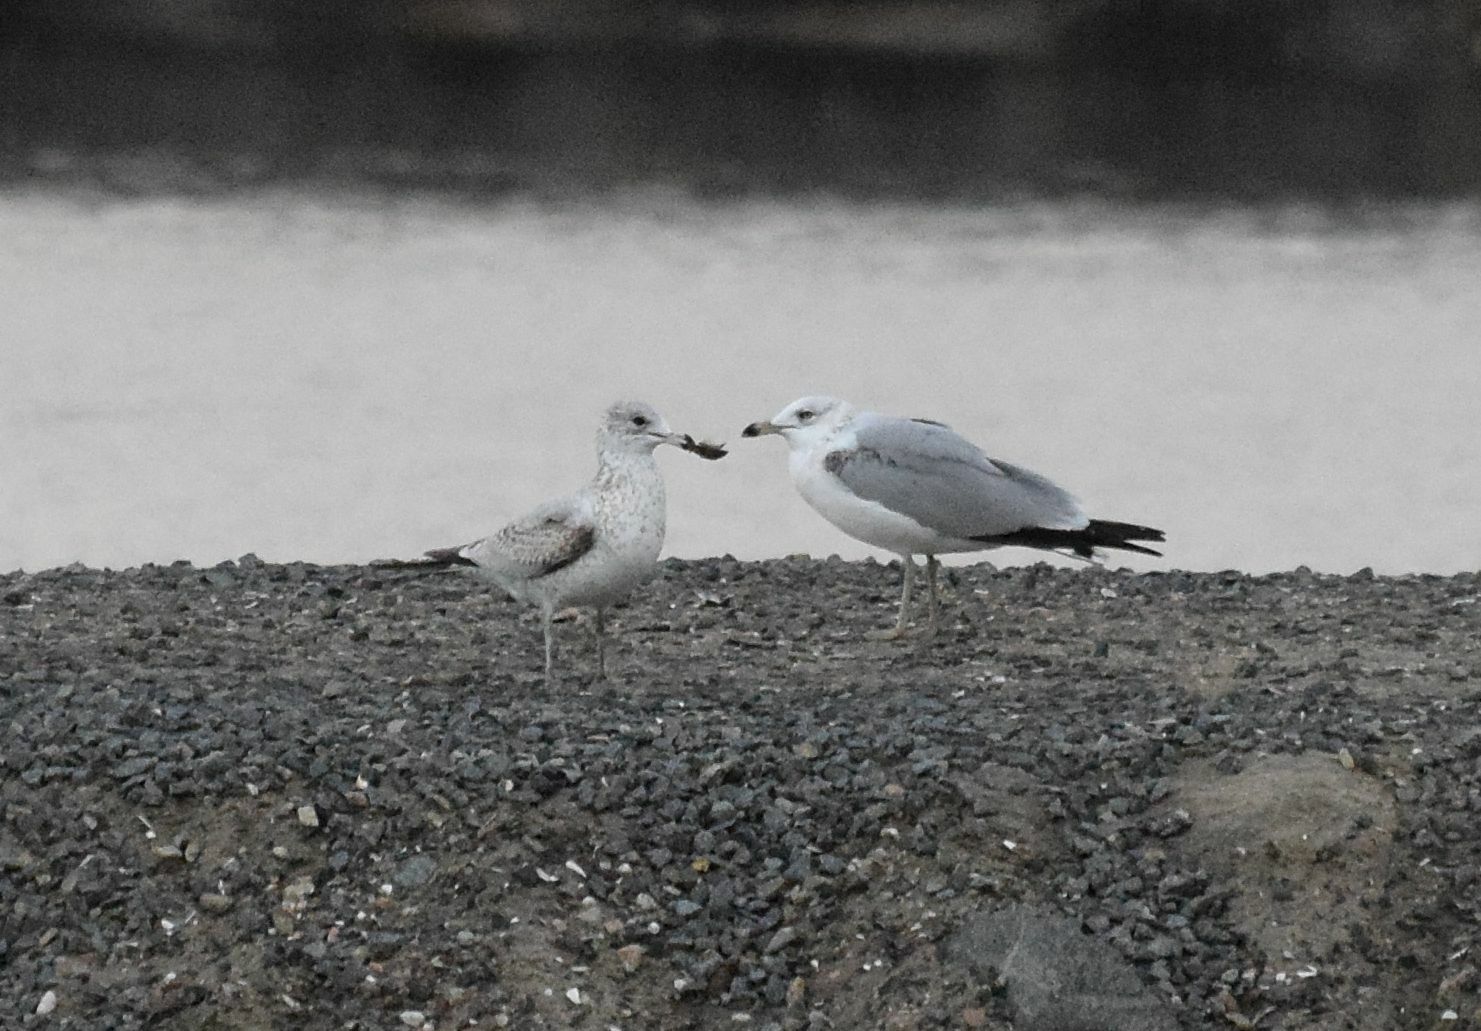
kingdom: Animalia
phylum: Chordata
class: Aves
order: Charadriiformes
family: Laridae
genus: Larus
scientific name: Larus delawarensis
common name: Ring-billed gull
